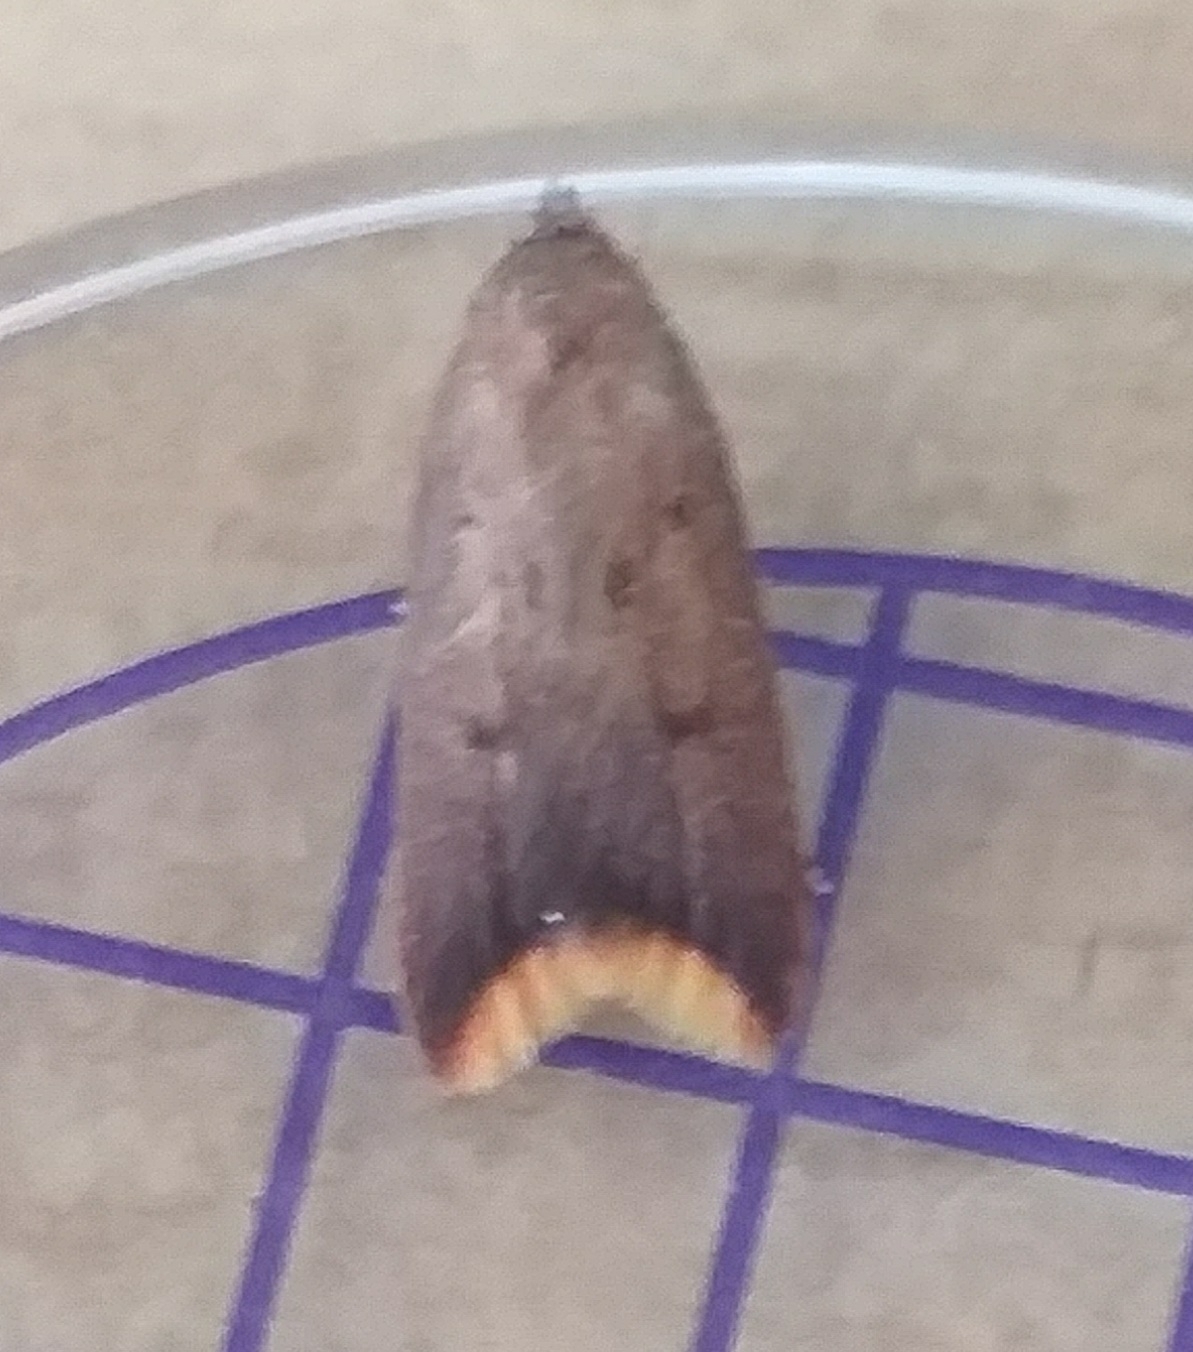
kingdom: Animalia
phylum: Arthropoda
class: Insecta
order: Lepidoptera
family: Oecophoridae
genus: Tachystola
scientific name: Tachystola acroxantha
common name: Ruddy streak
